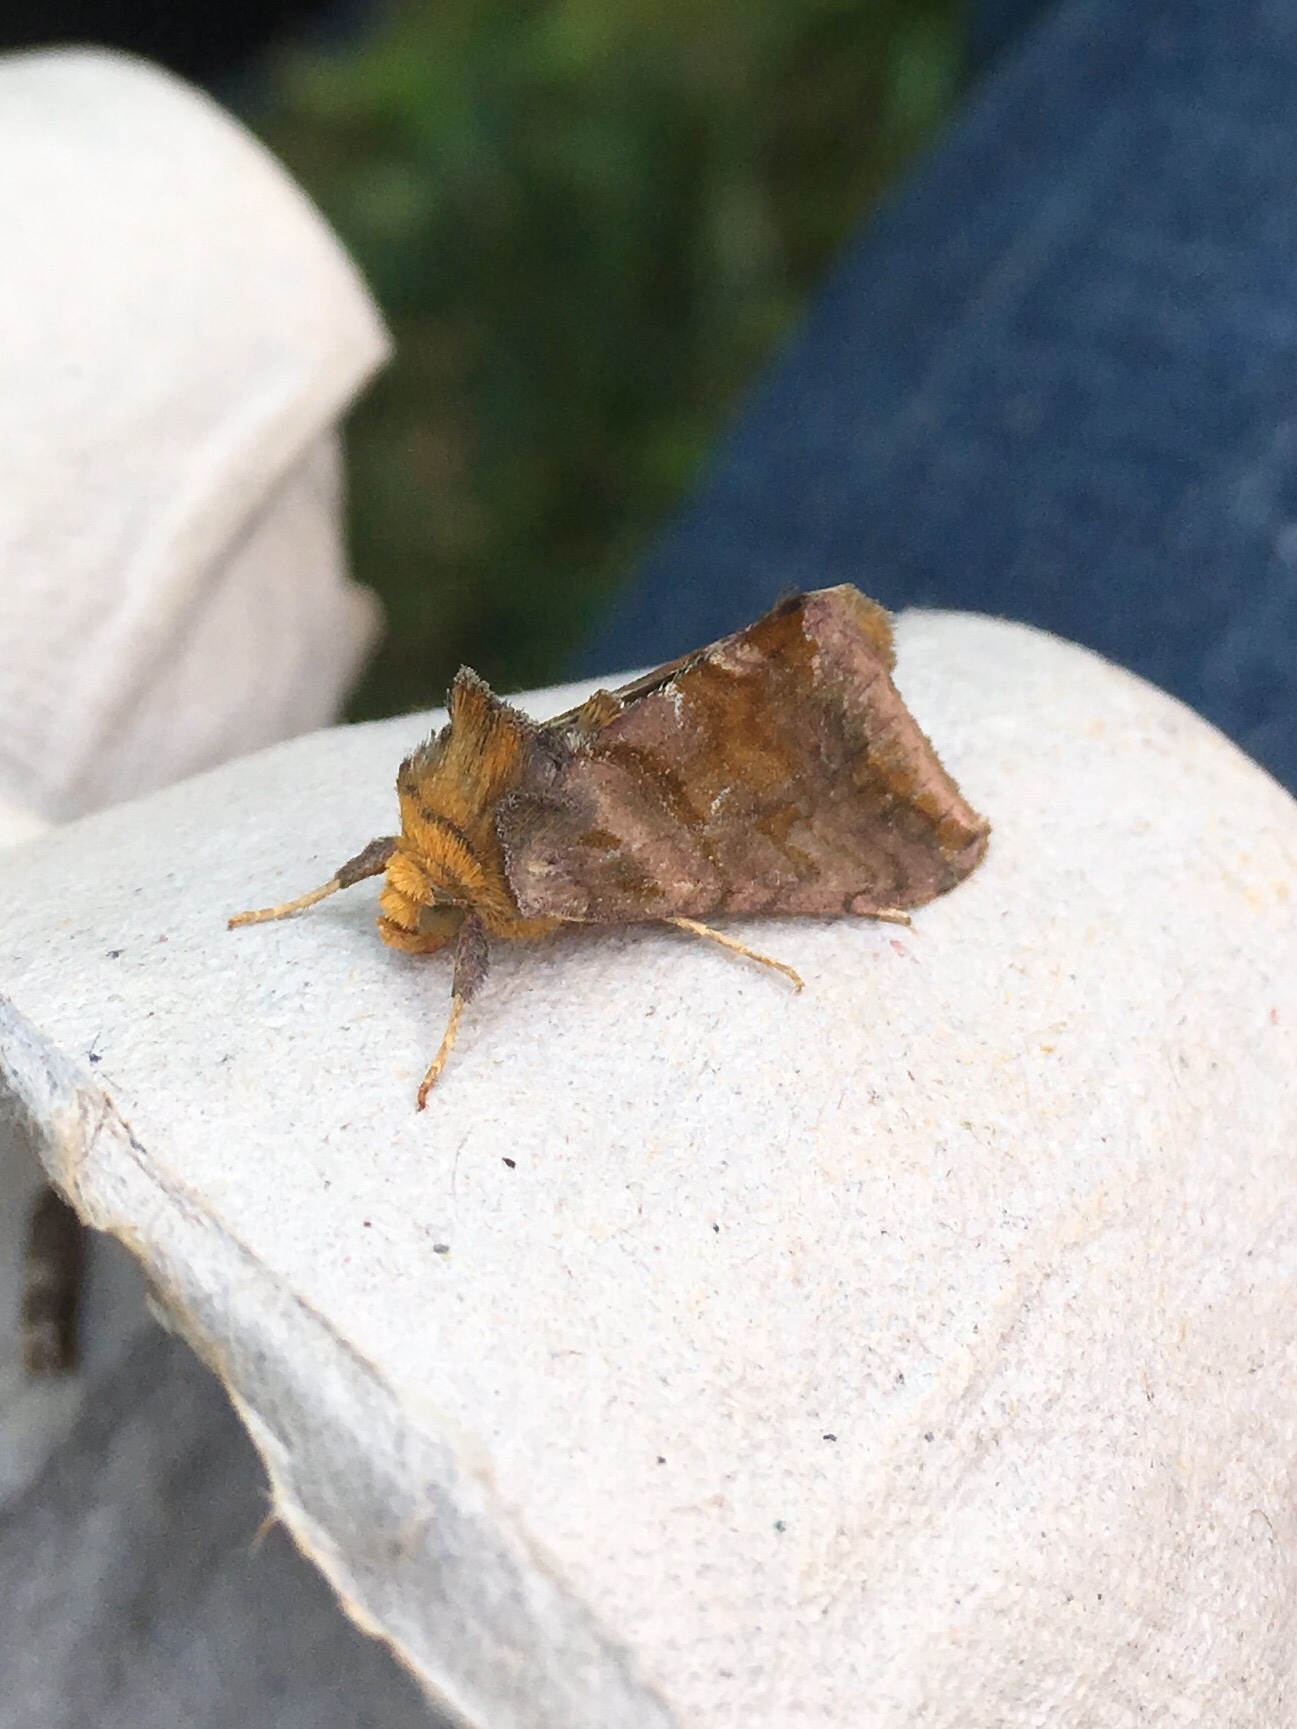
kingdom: Animalia
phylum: Arthropoda
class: Insecta
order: Lepidoptera
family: Noctuidae
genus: Allagrapha
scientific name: Allagrapha aerea
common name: Unspotted looper moth
